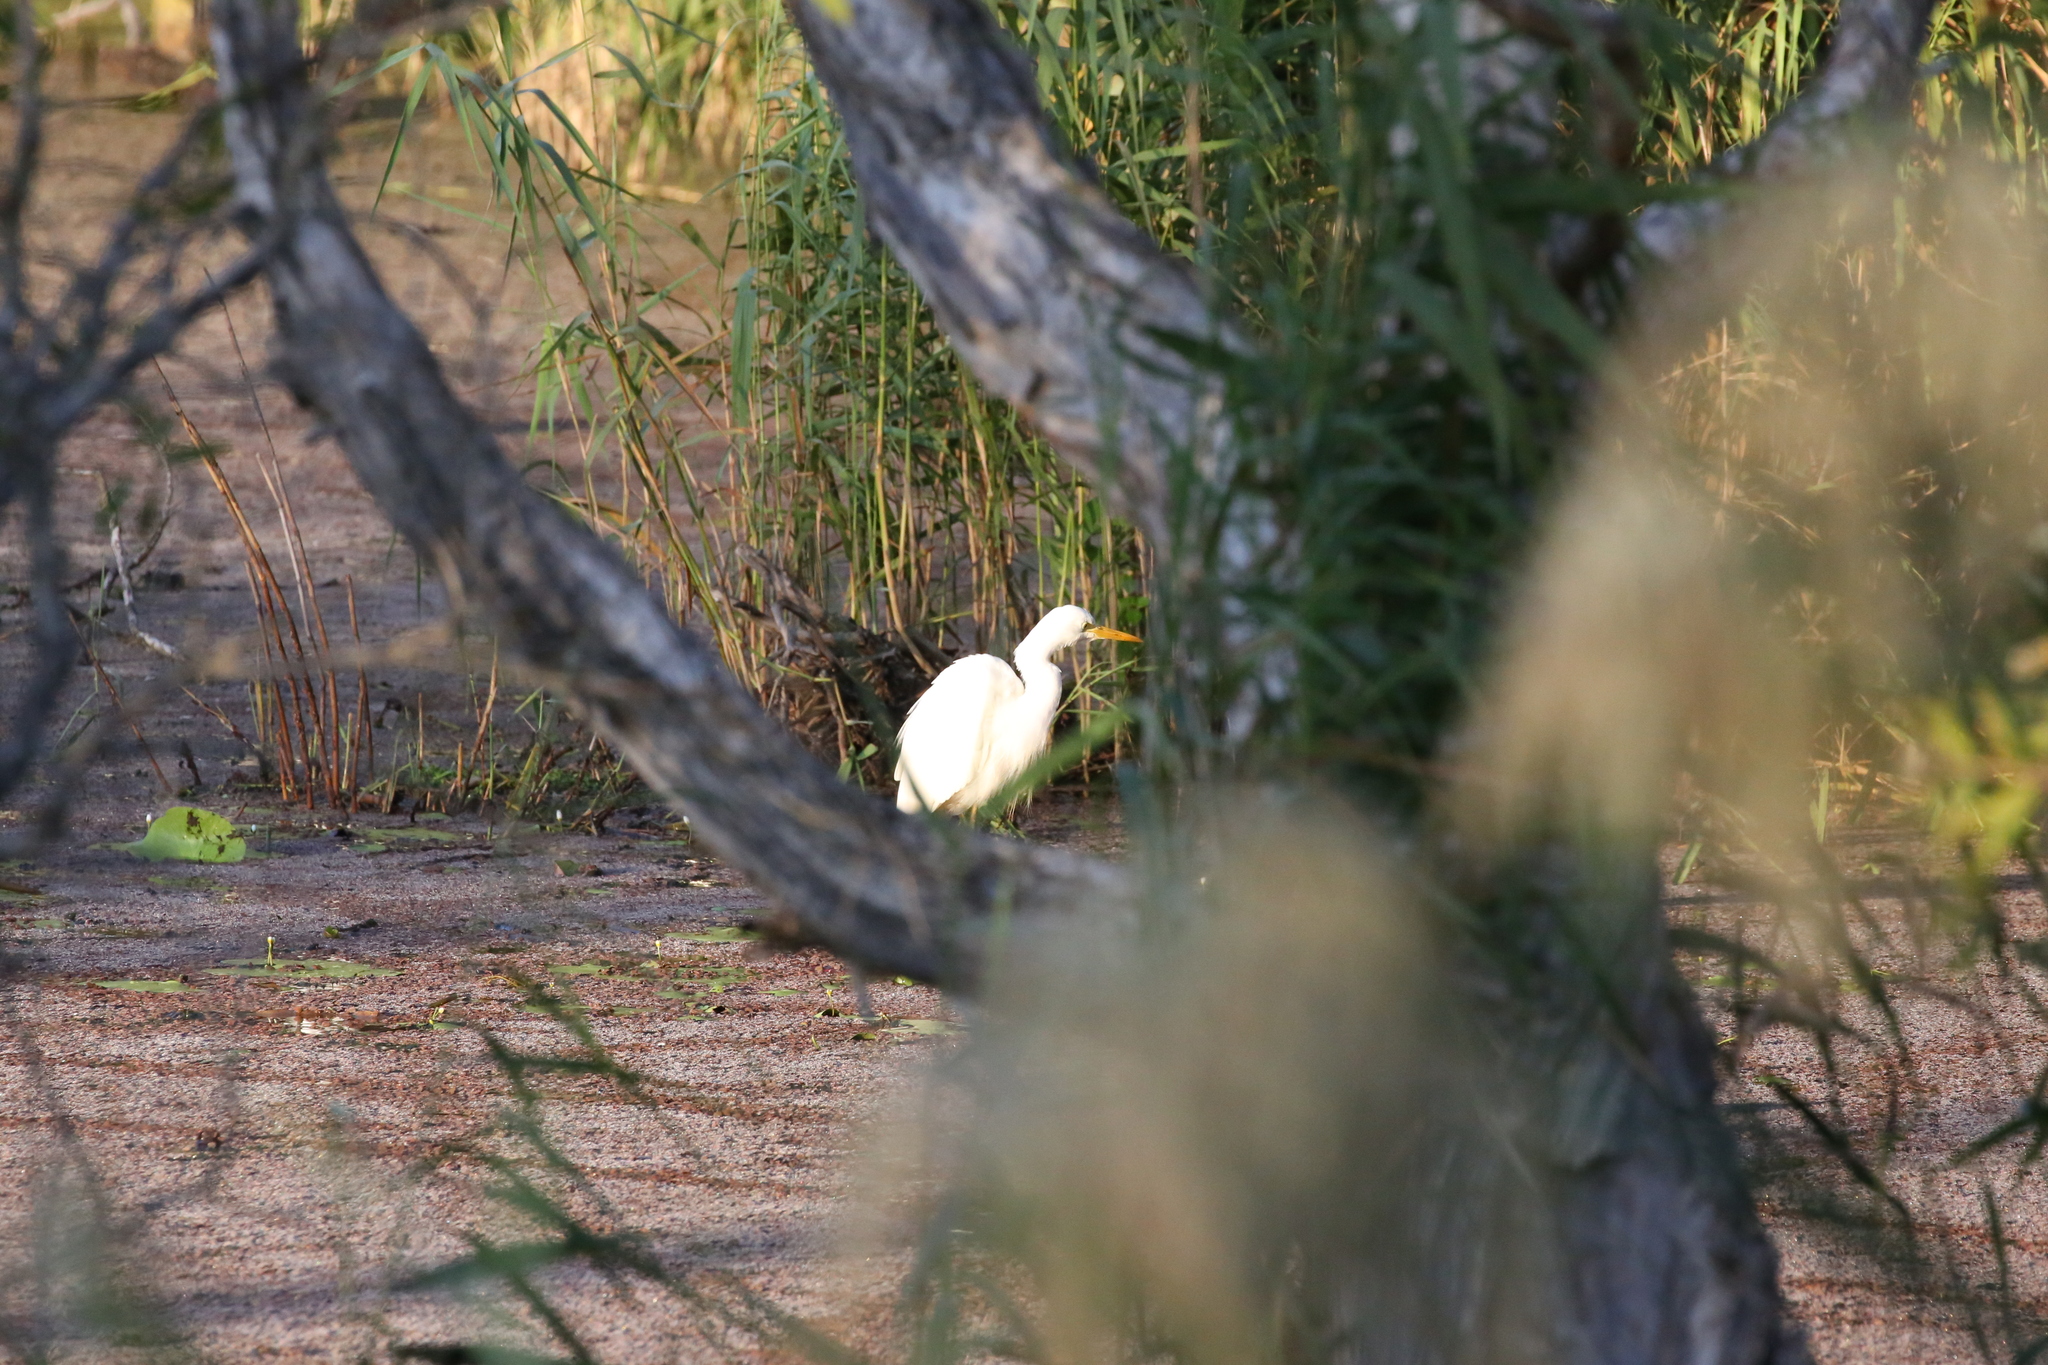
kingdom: Animalia
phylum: Chordata
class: Aves
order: Pelecaniformes
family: Ardeidae
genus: Egretta
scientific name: Egretta intermedia
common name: Intermediate egret
